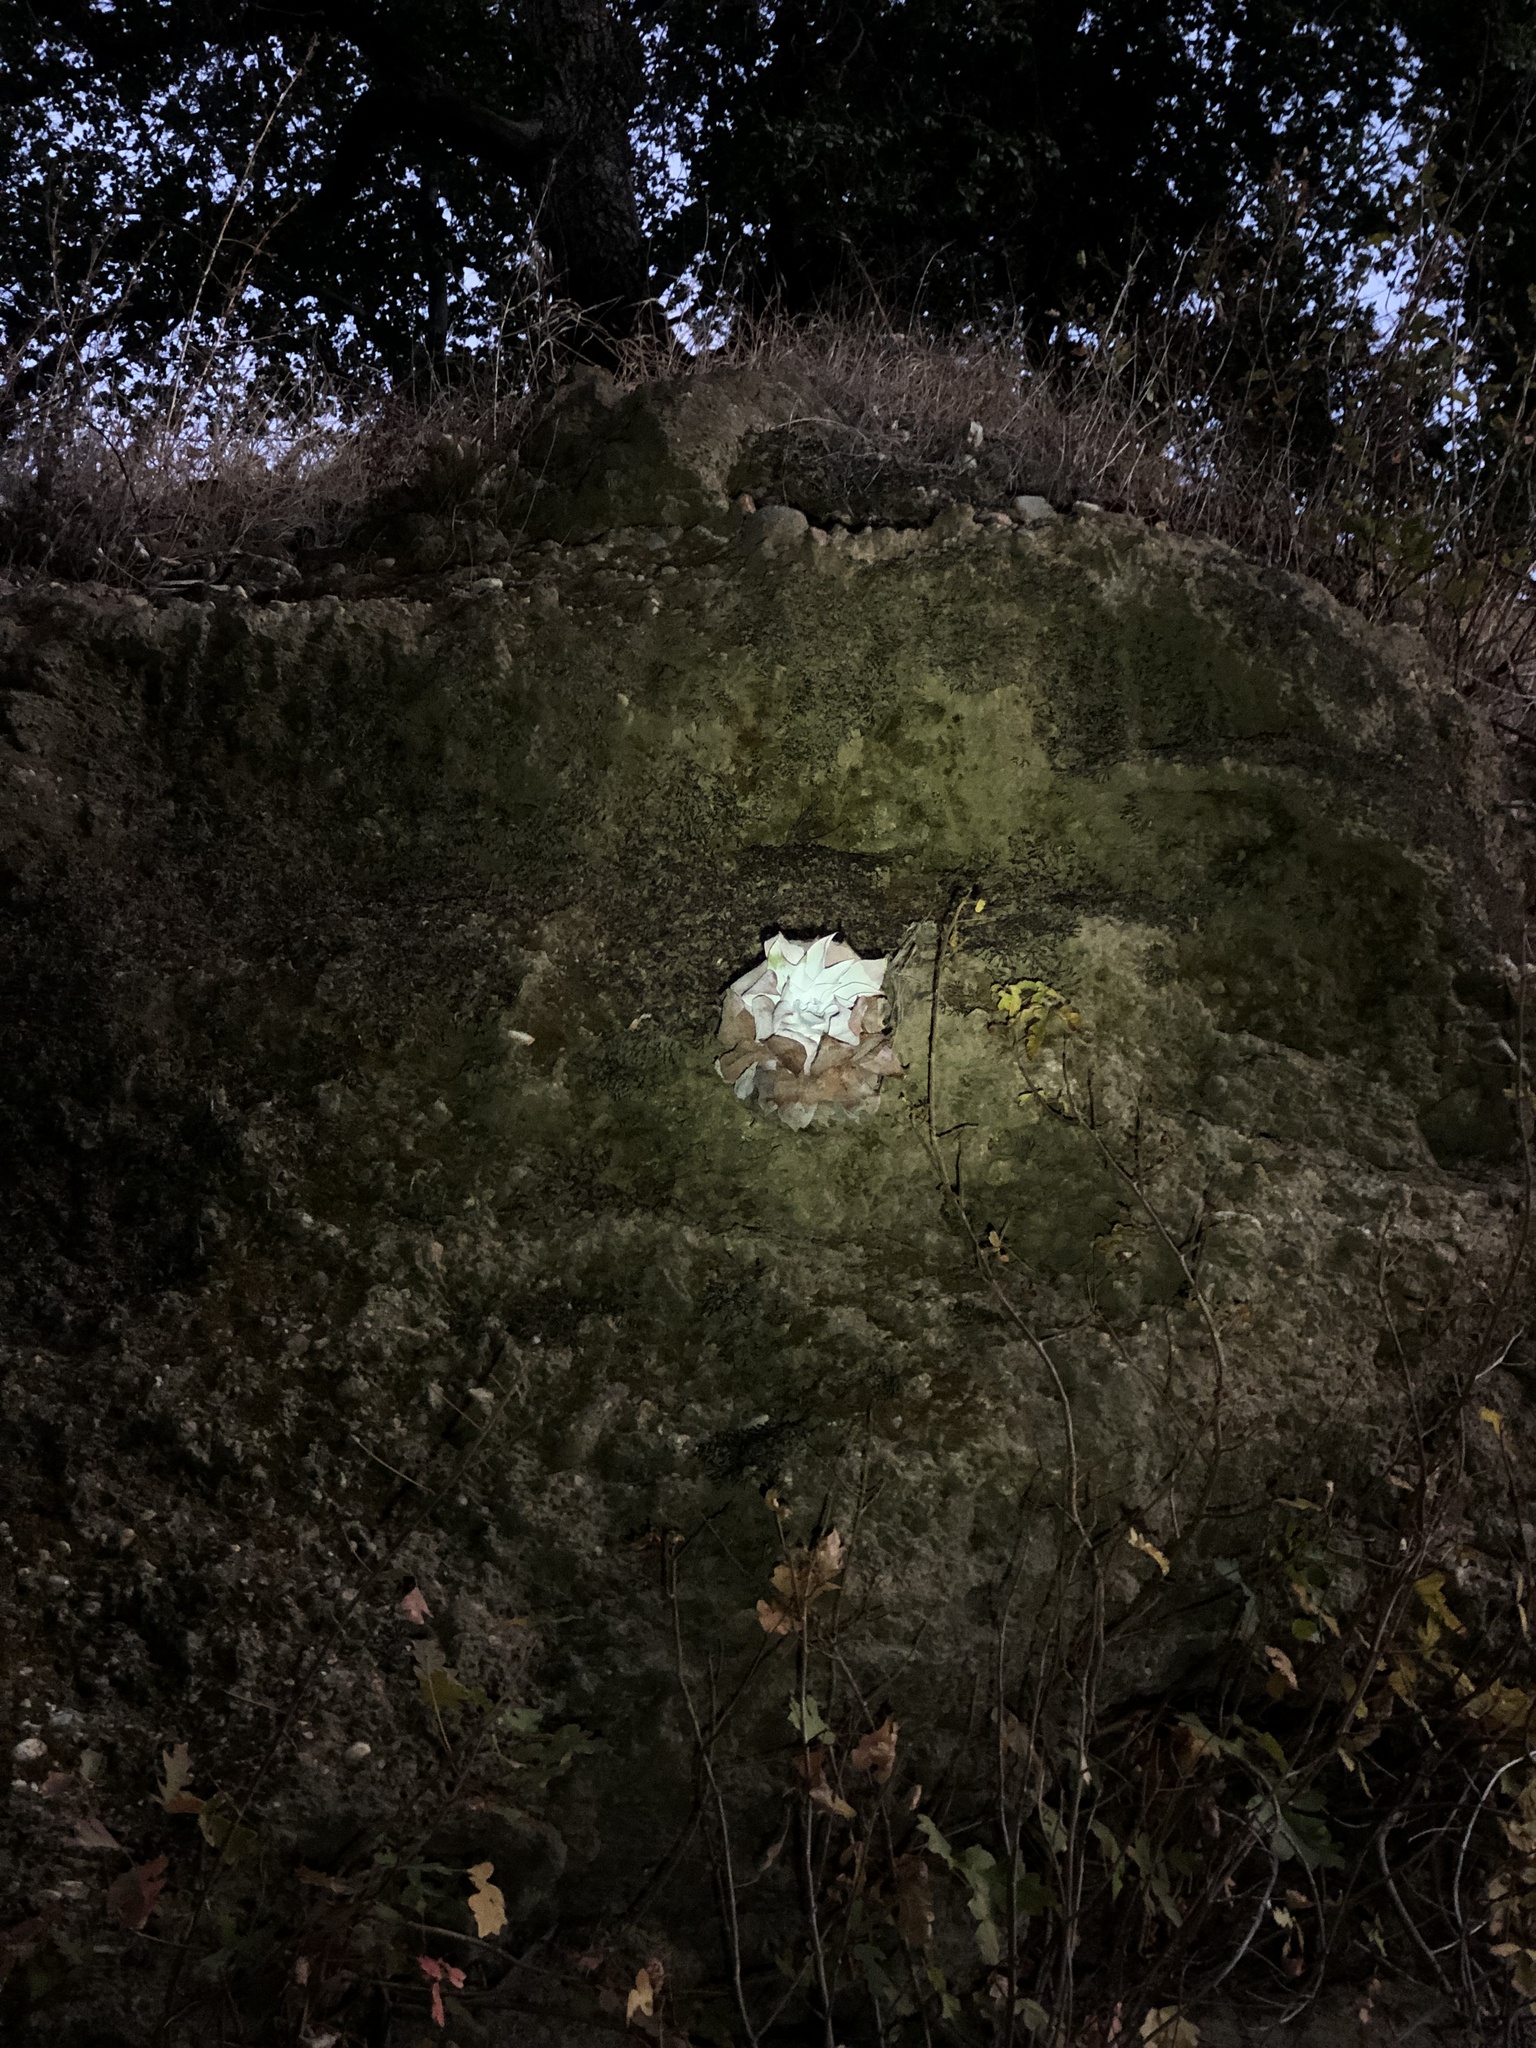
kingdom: Plantae
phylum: Tracheophyta
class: Magnoliopsida
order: Saxifragales
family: Crassulaceae
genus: Dudleya
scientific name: Dudleya pulverulenta
